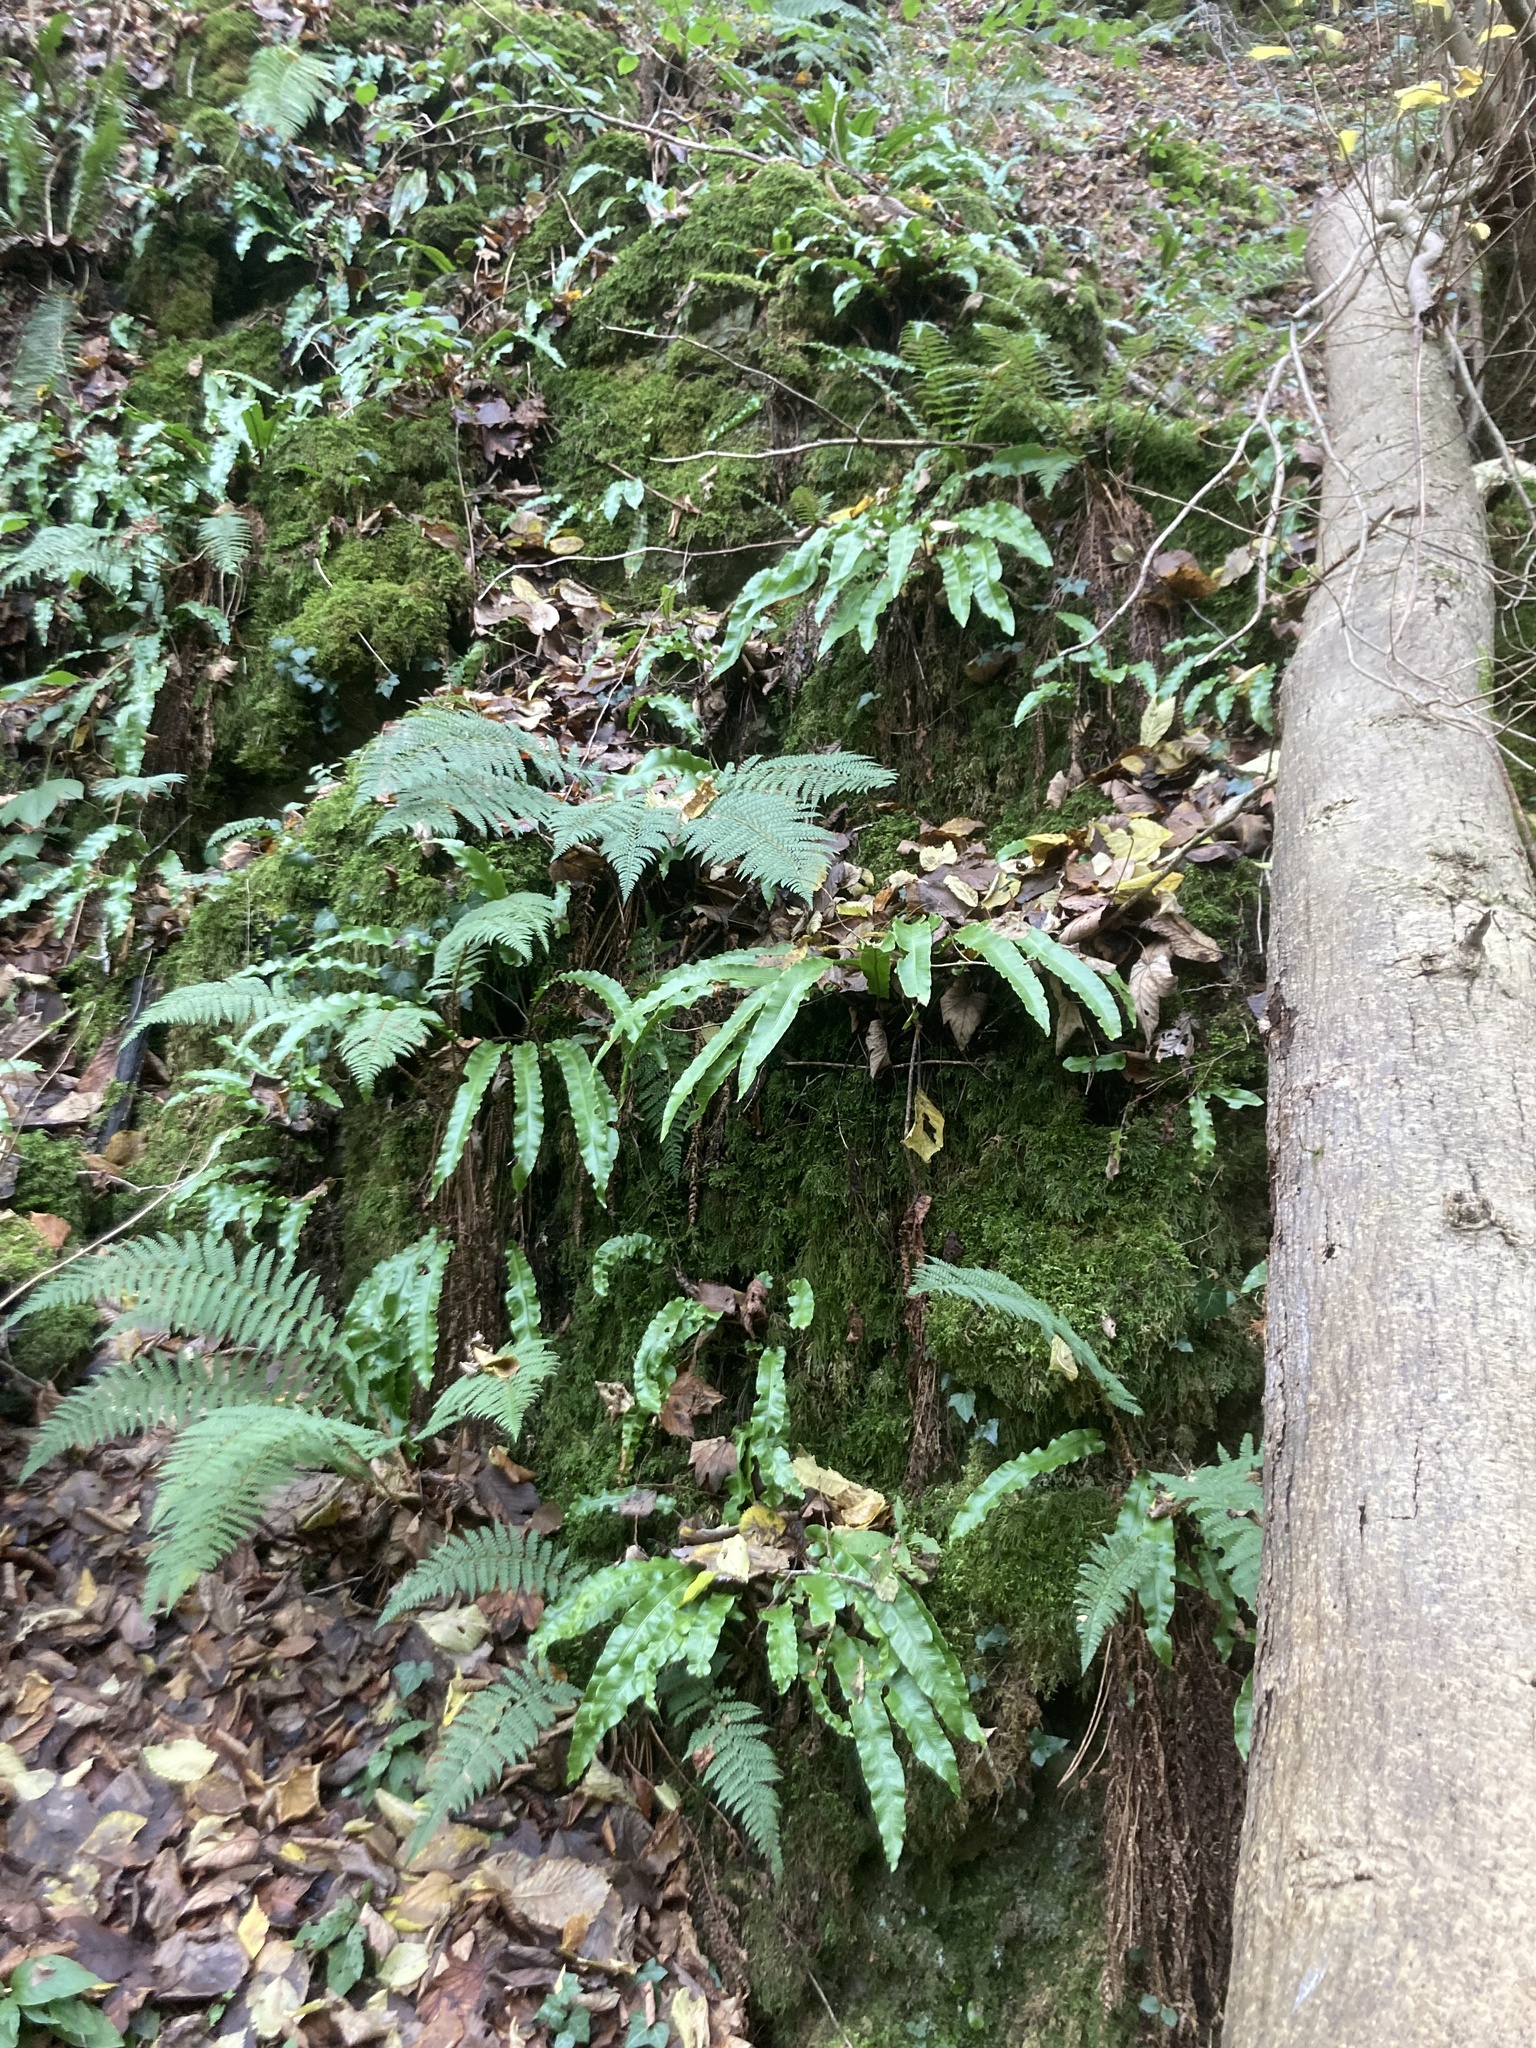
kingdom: Plantae
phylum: Tracheophyta
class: Polypodiopsida
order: Polypodiales
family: Aspleniaceae
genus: Asplenium
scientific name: Asplenium scolopendrium
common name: Hart's-tongue fern
